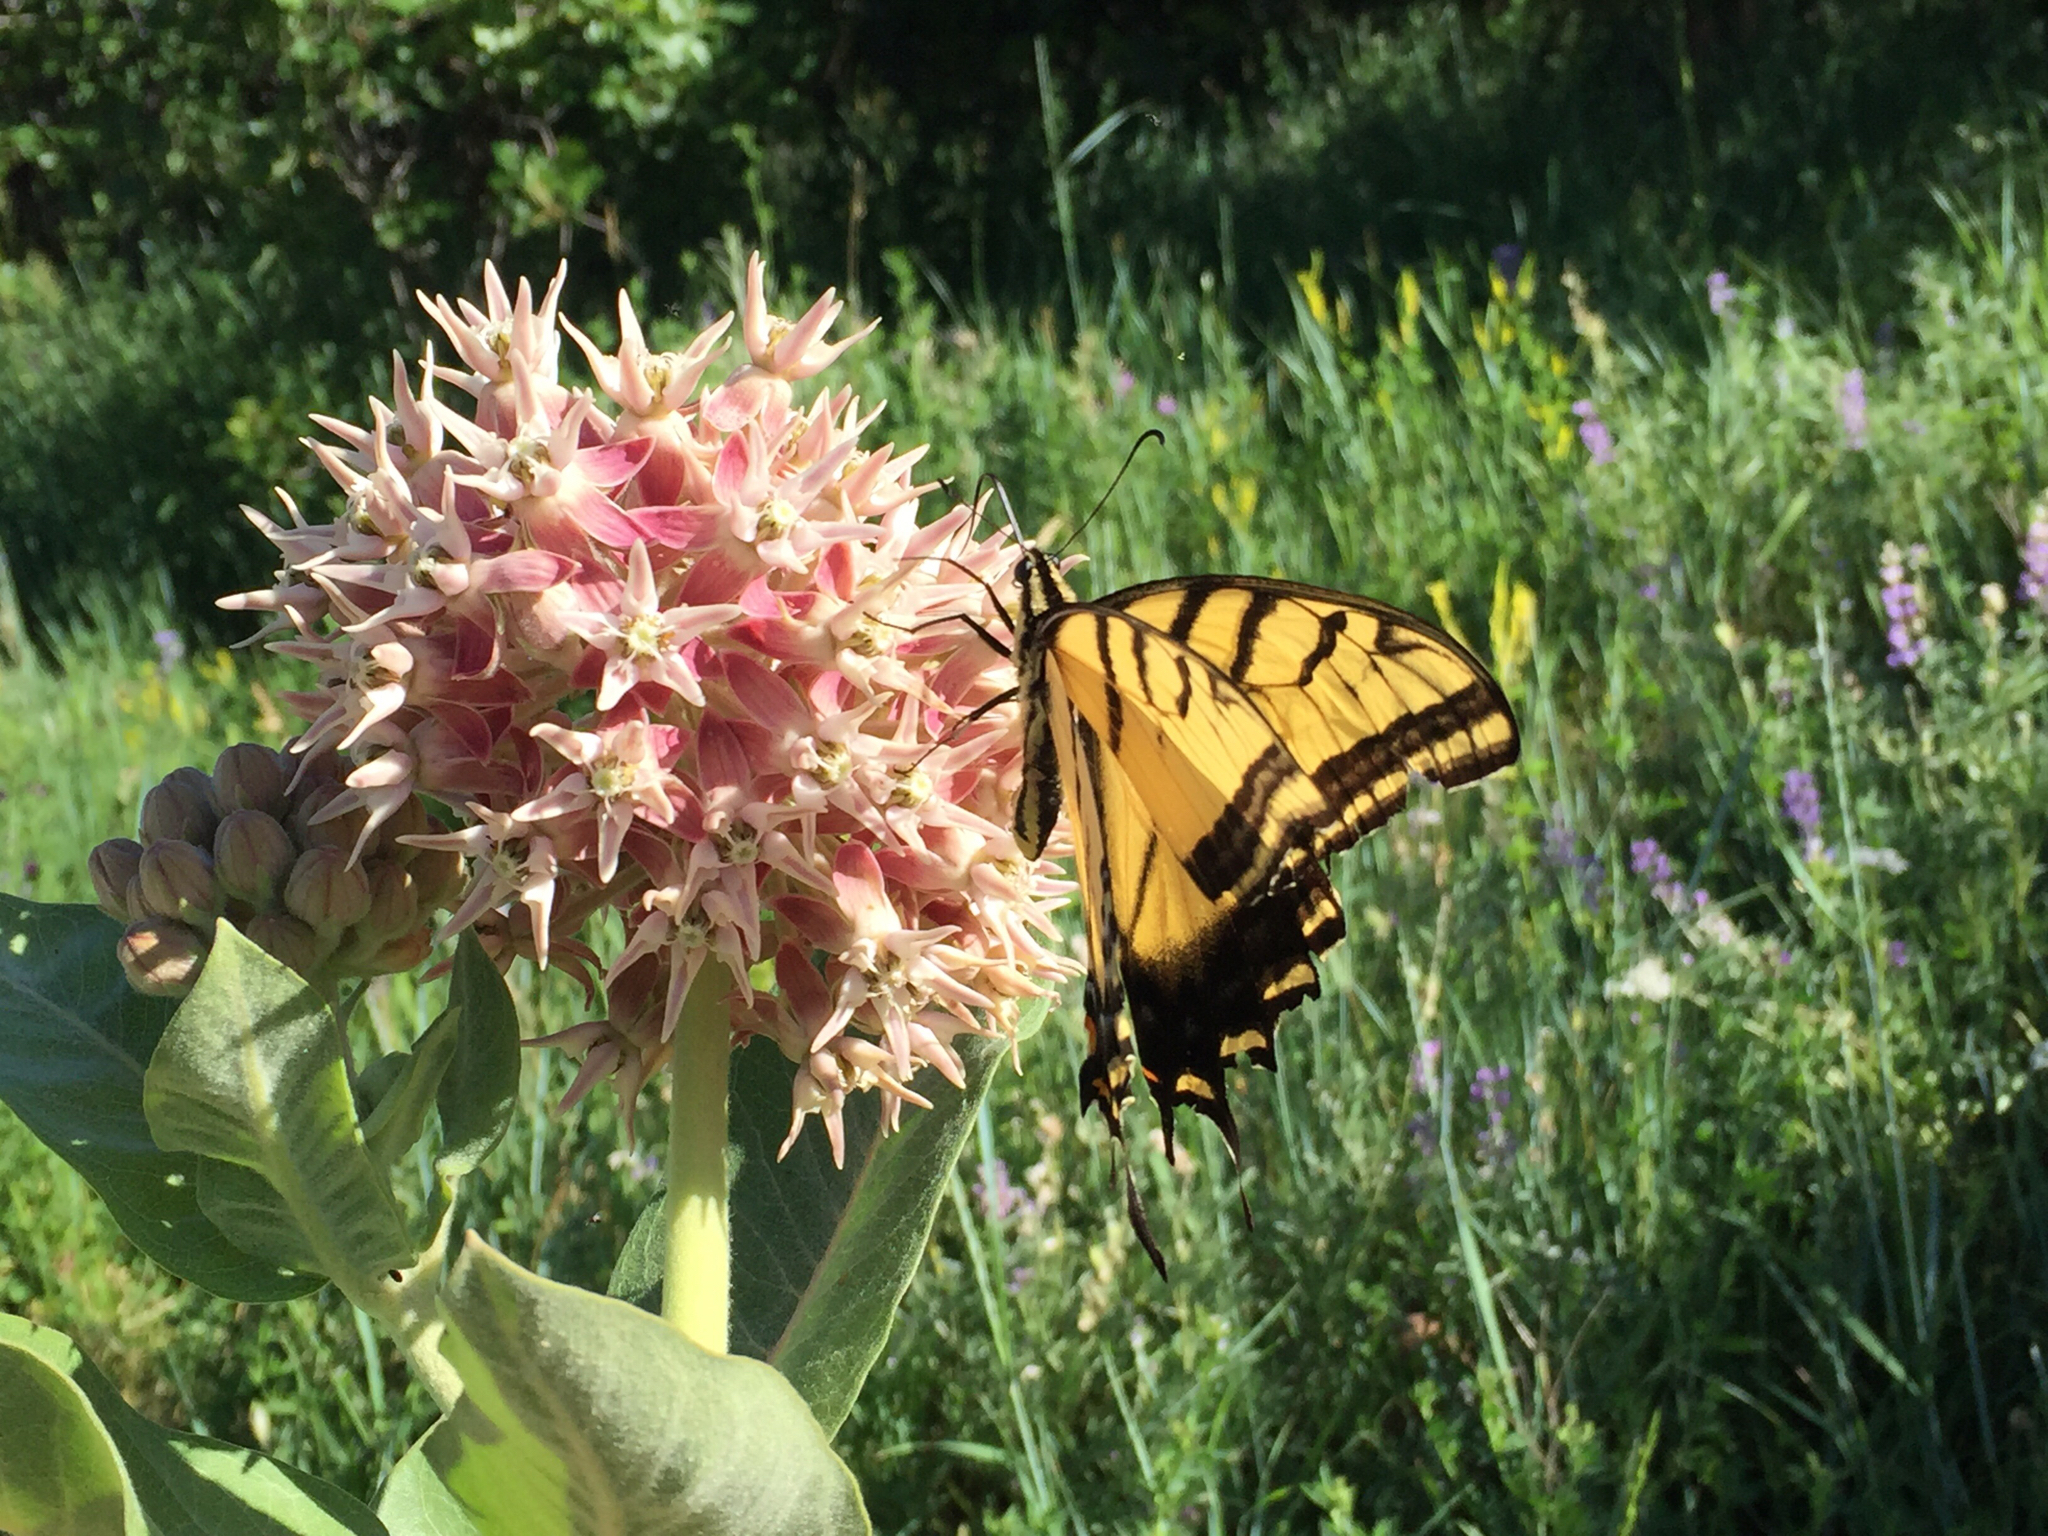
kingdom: Animalia
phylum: Arthropoda
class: Insecta
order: Lepidoptera
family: Papilionidae
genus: Papilio
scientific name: Papilio multicaudata
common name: Two-tailed tiger swallowtail
